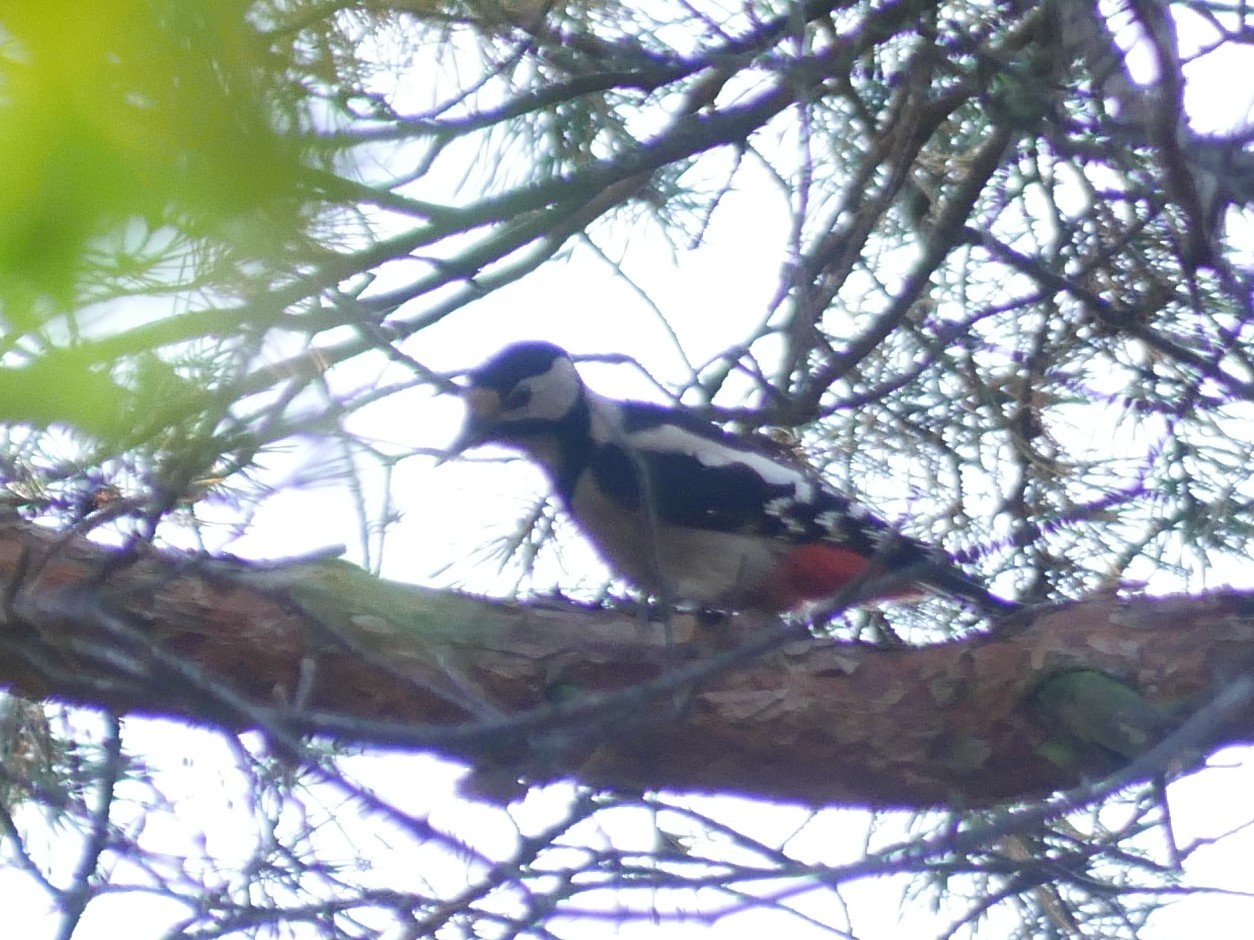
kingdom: Animalia
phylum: Chordata
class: Aves
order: Piciformes
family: Picidae
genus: Dendrocopos
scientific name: Dendrocopos major
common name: Great spotted woodpecker
